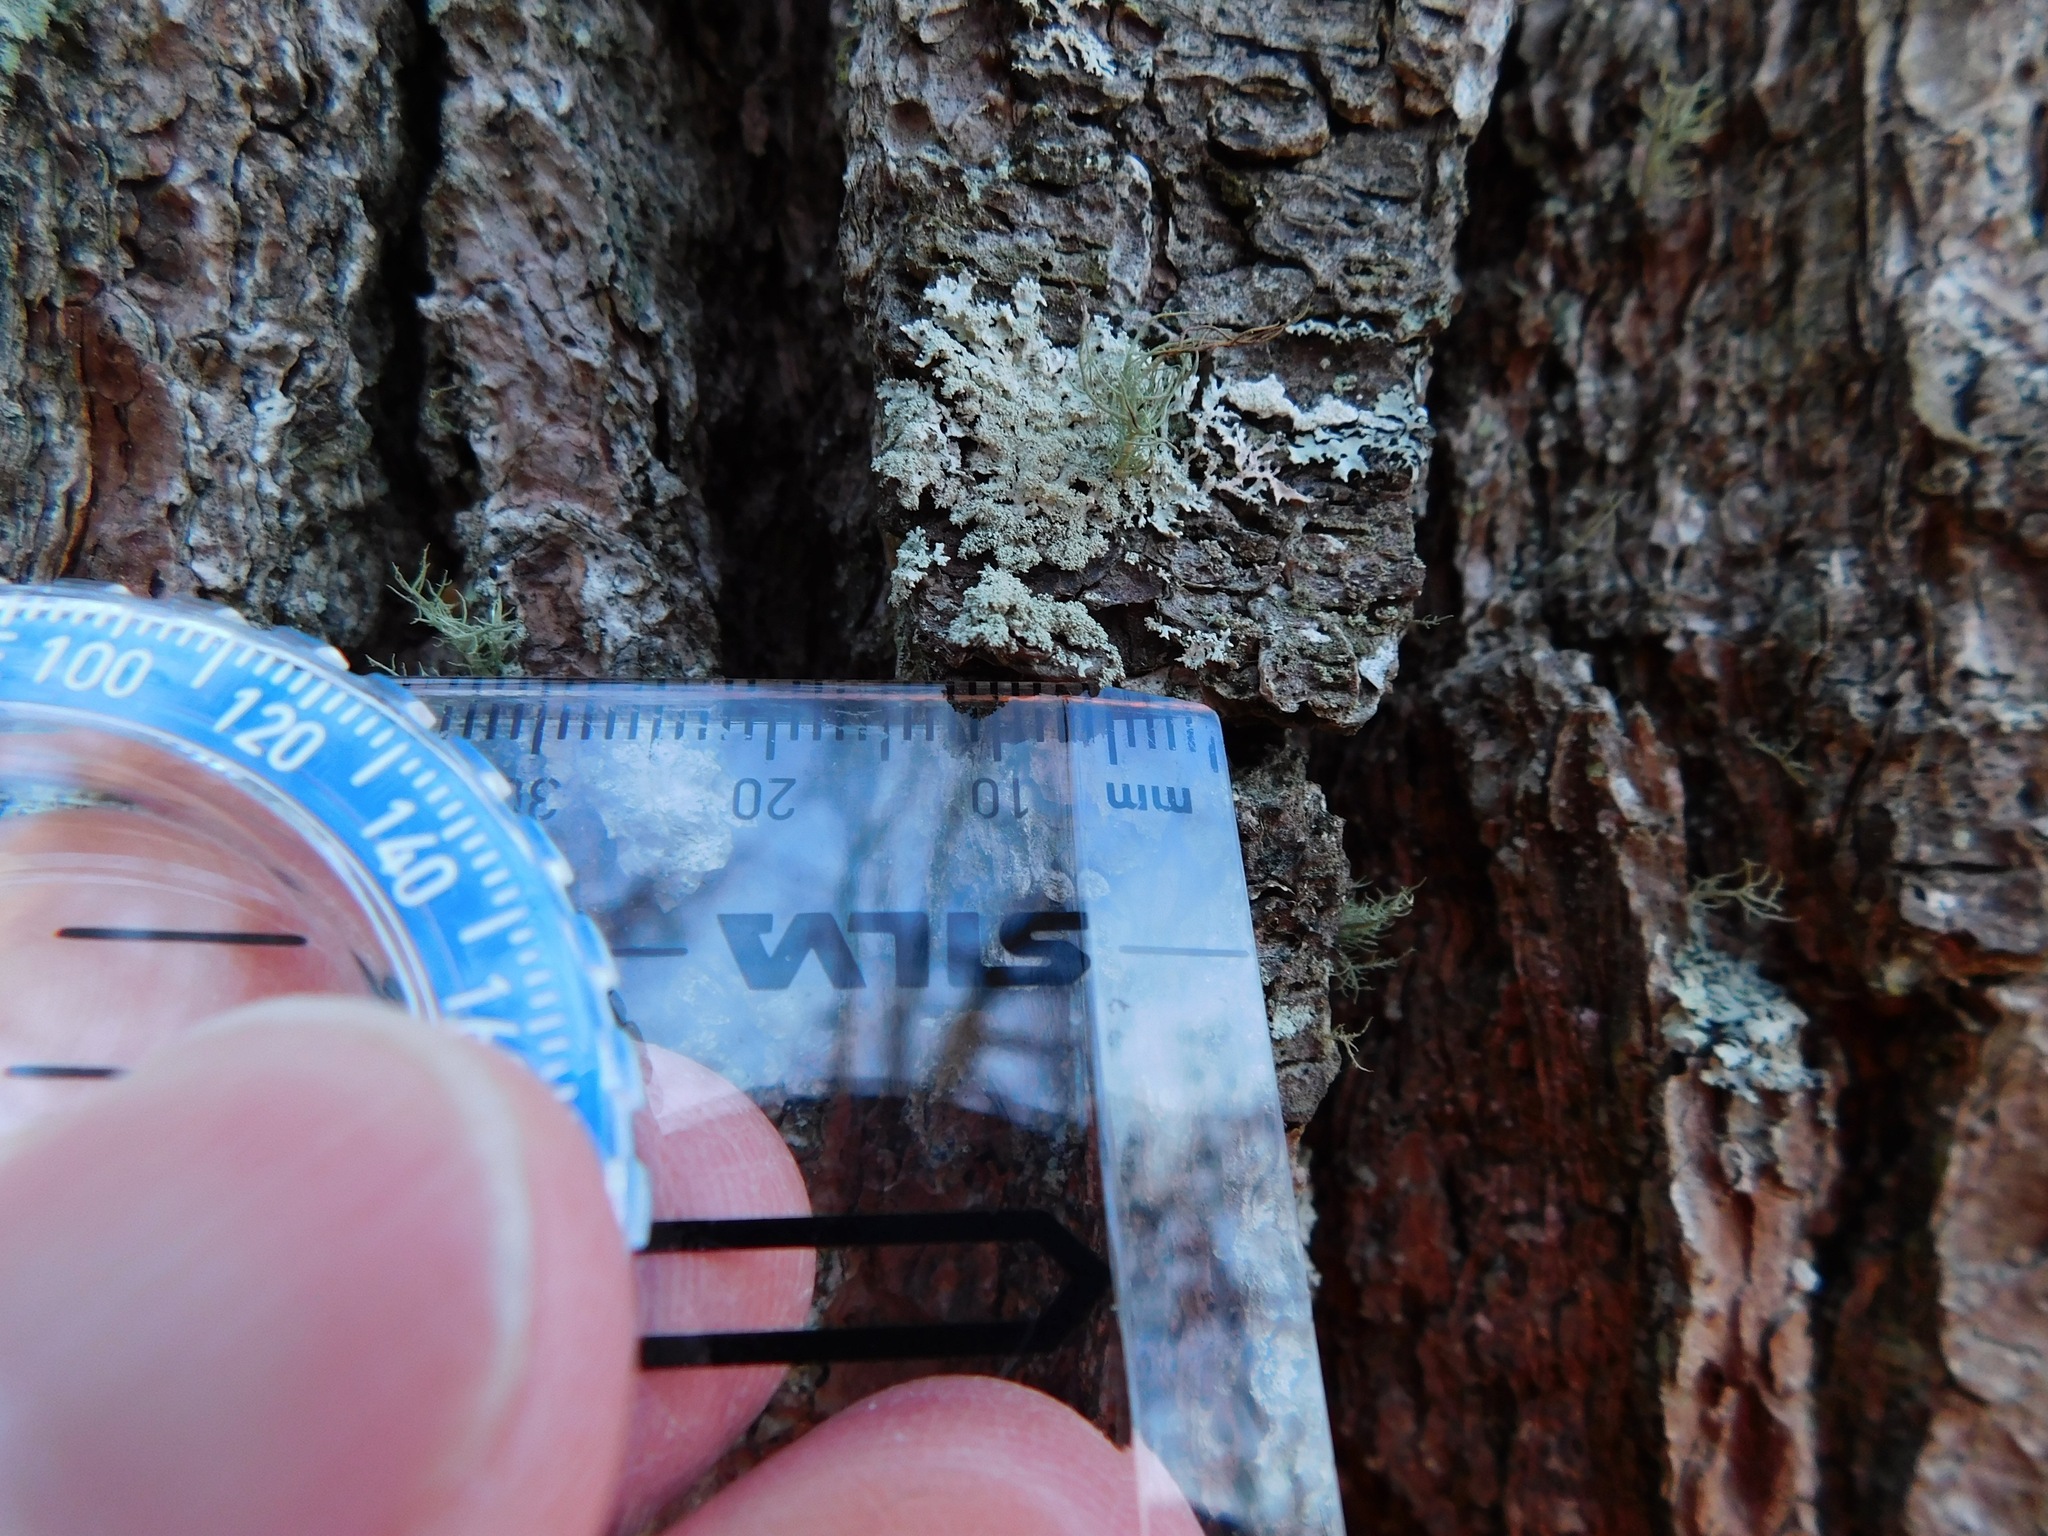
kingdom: Fungi
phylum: Ascomycota
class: Lecanoromycetes
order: Lecanorales
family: Parmeliaceae
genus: Imshaugia
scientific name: Imshaugia aleurites
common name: Salted starburst lichen
